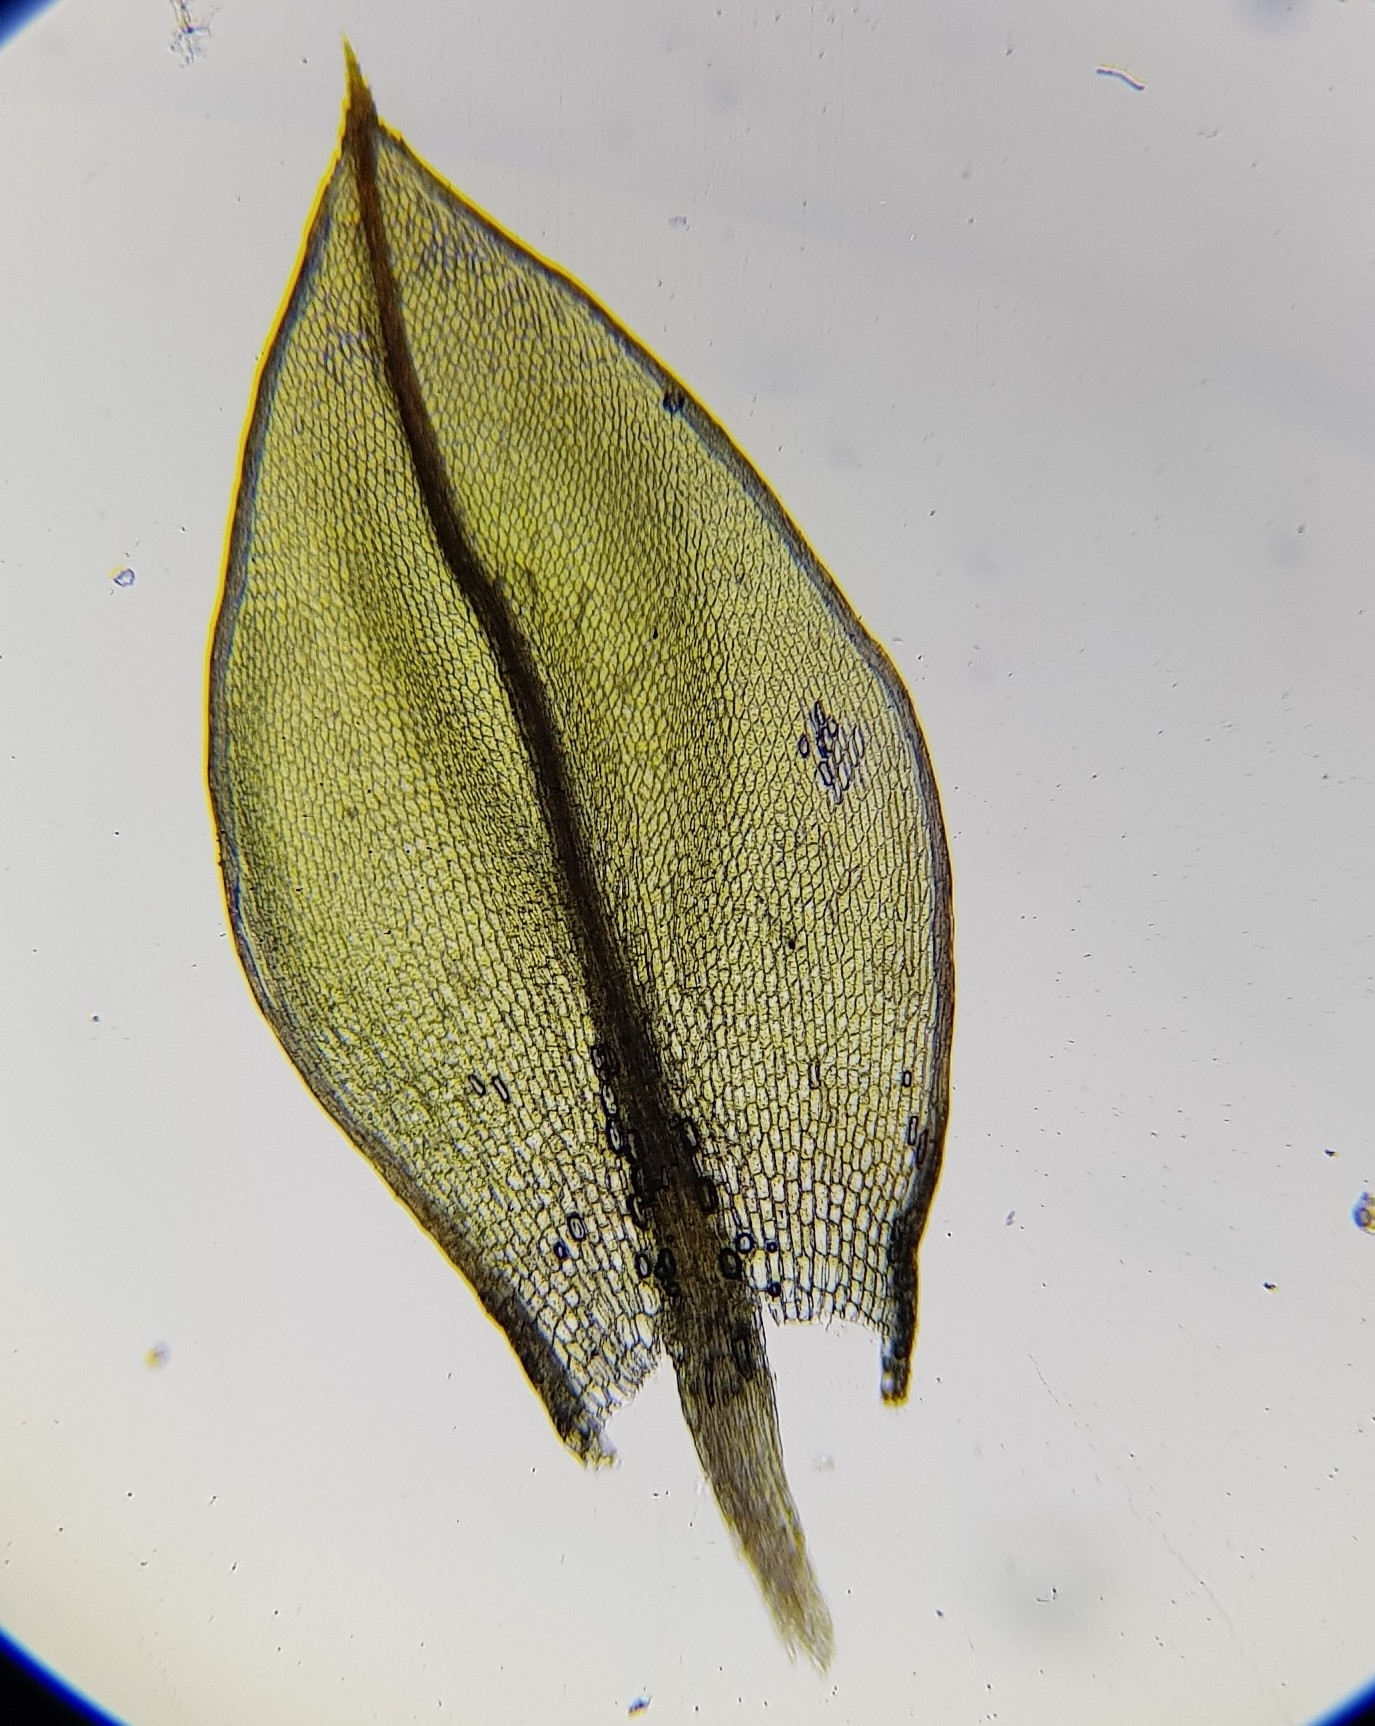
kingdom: Plantae
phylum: Bryophyta
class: Bryopsida
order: Bryales
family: Bryaceae
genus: Ptychostomum
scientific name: Ptychostomum pseudotriquetrum
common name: Long-leaved thread moss
